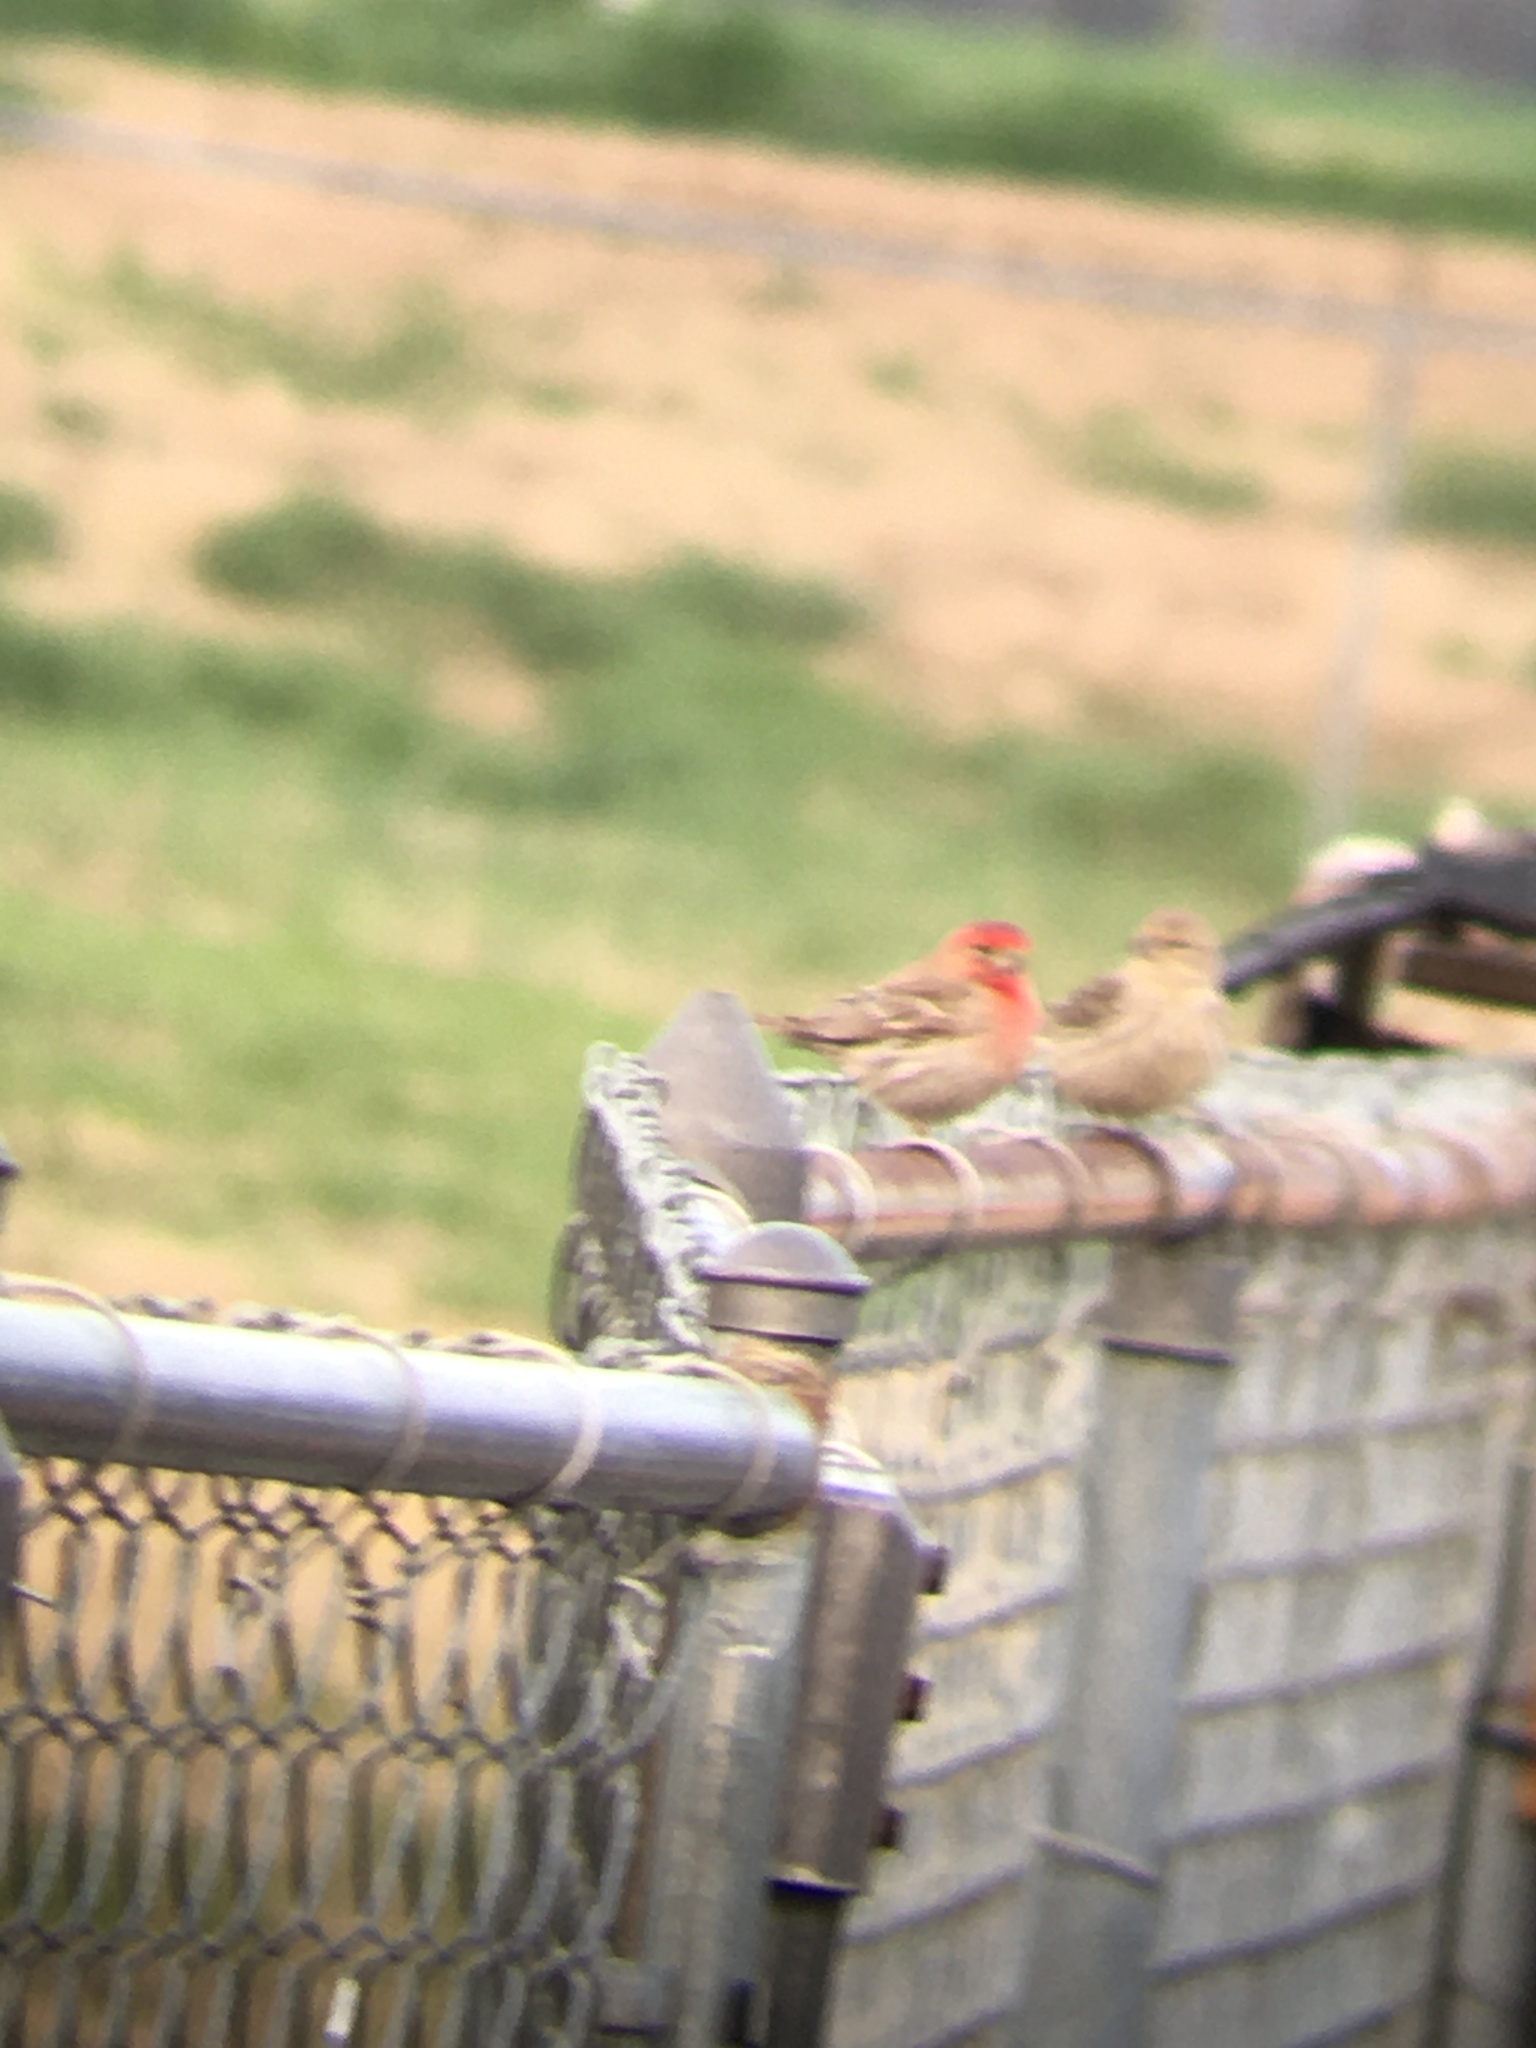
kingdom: Animalia
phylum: Chordata
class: Aves
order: Passeriformes
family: Fringillidae
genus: Haemorhous
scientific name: Haemorhous mexicanus
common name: House finch
